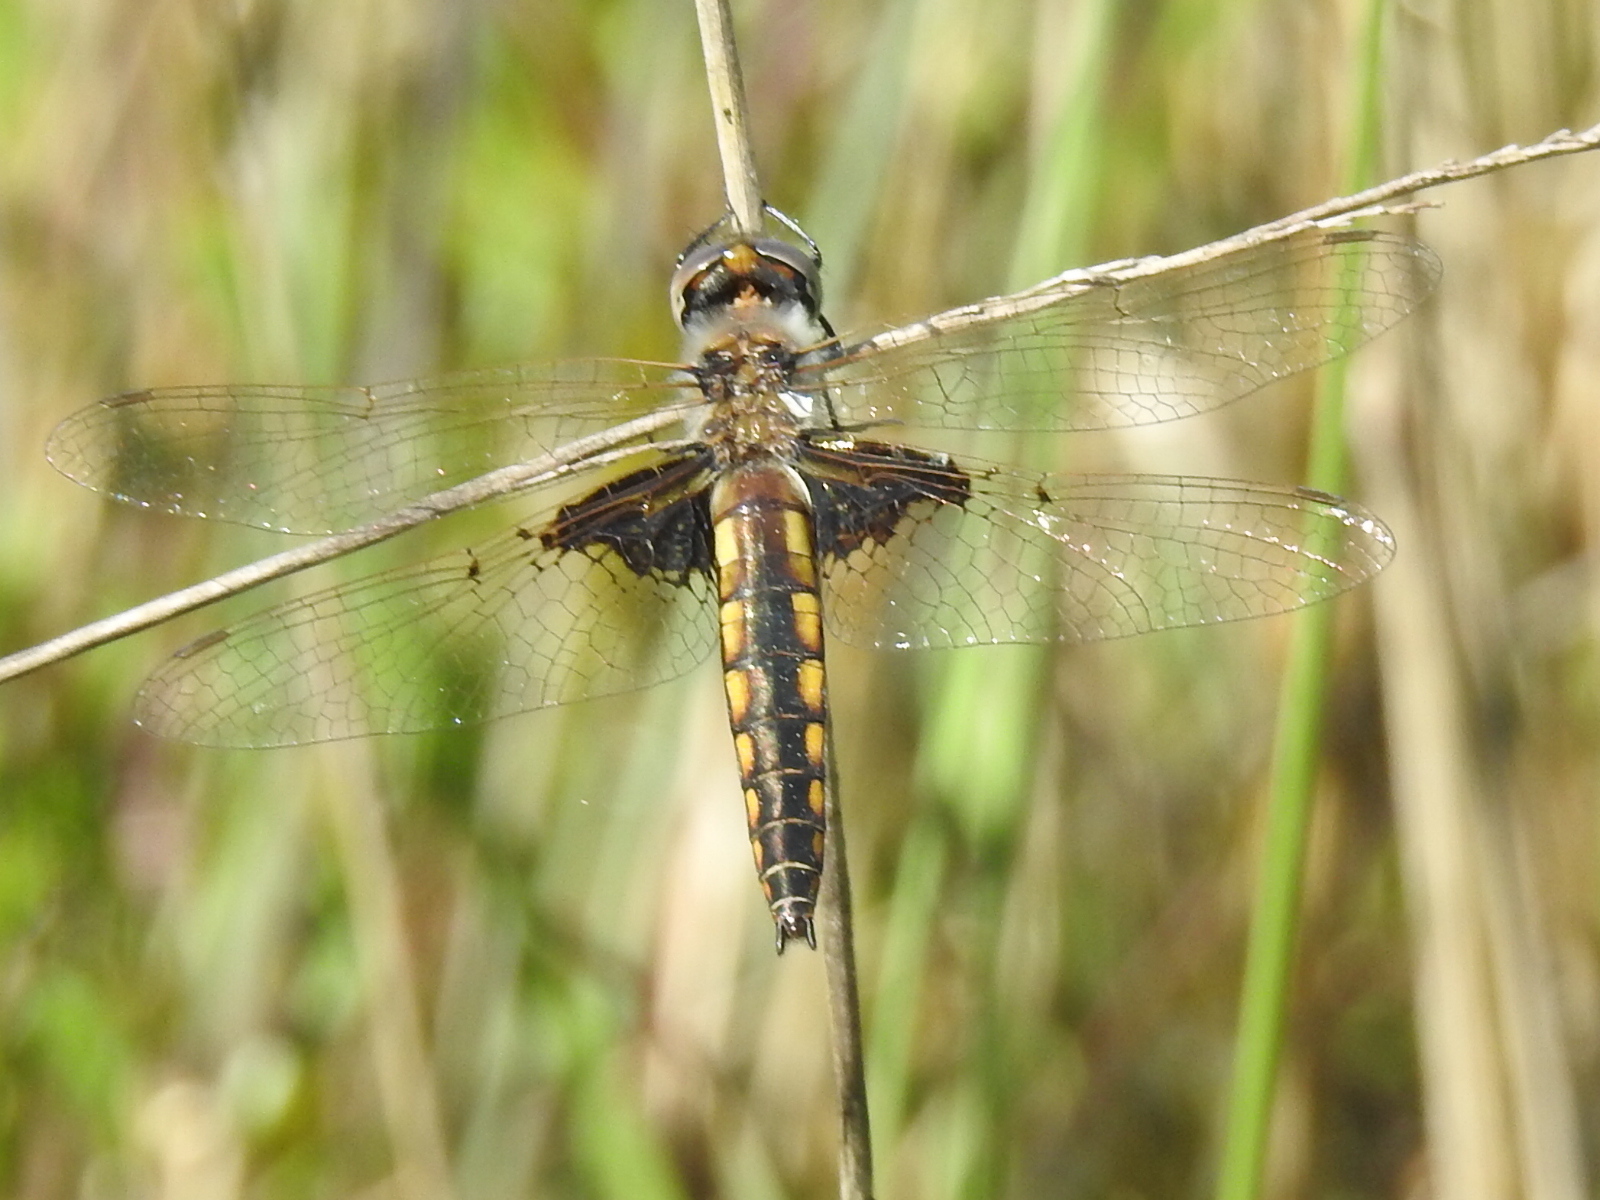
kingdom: Animalia
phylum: Arthropoda
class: Insecta
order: Odonata
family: Corduliidae
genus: Epitheca
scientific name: Epitheca semiaquea
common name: Mantled baskettail
